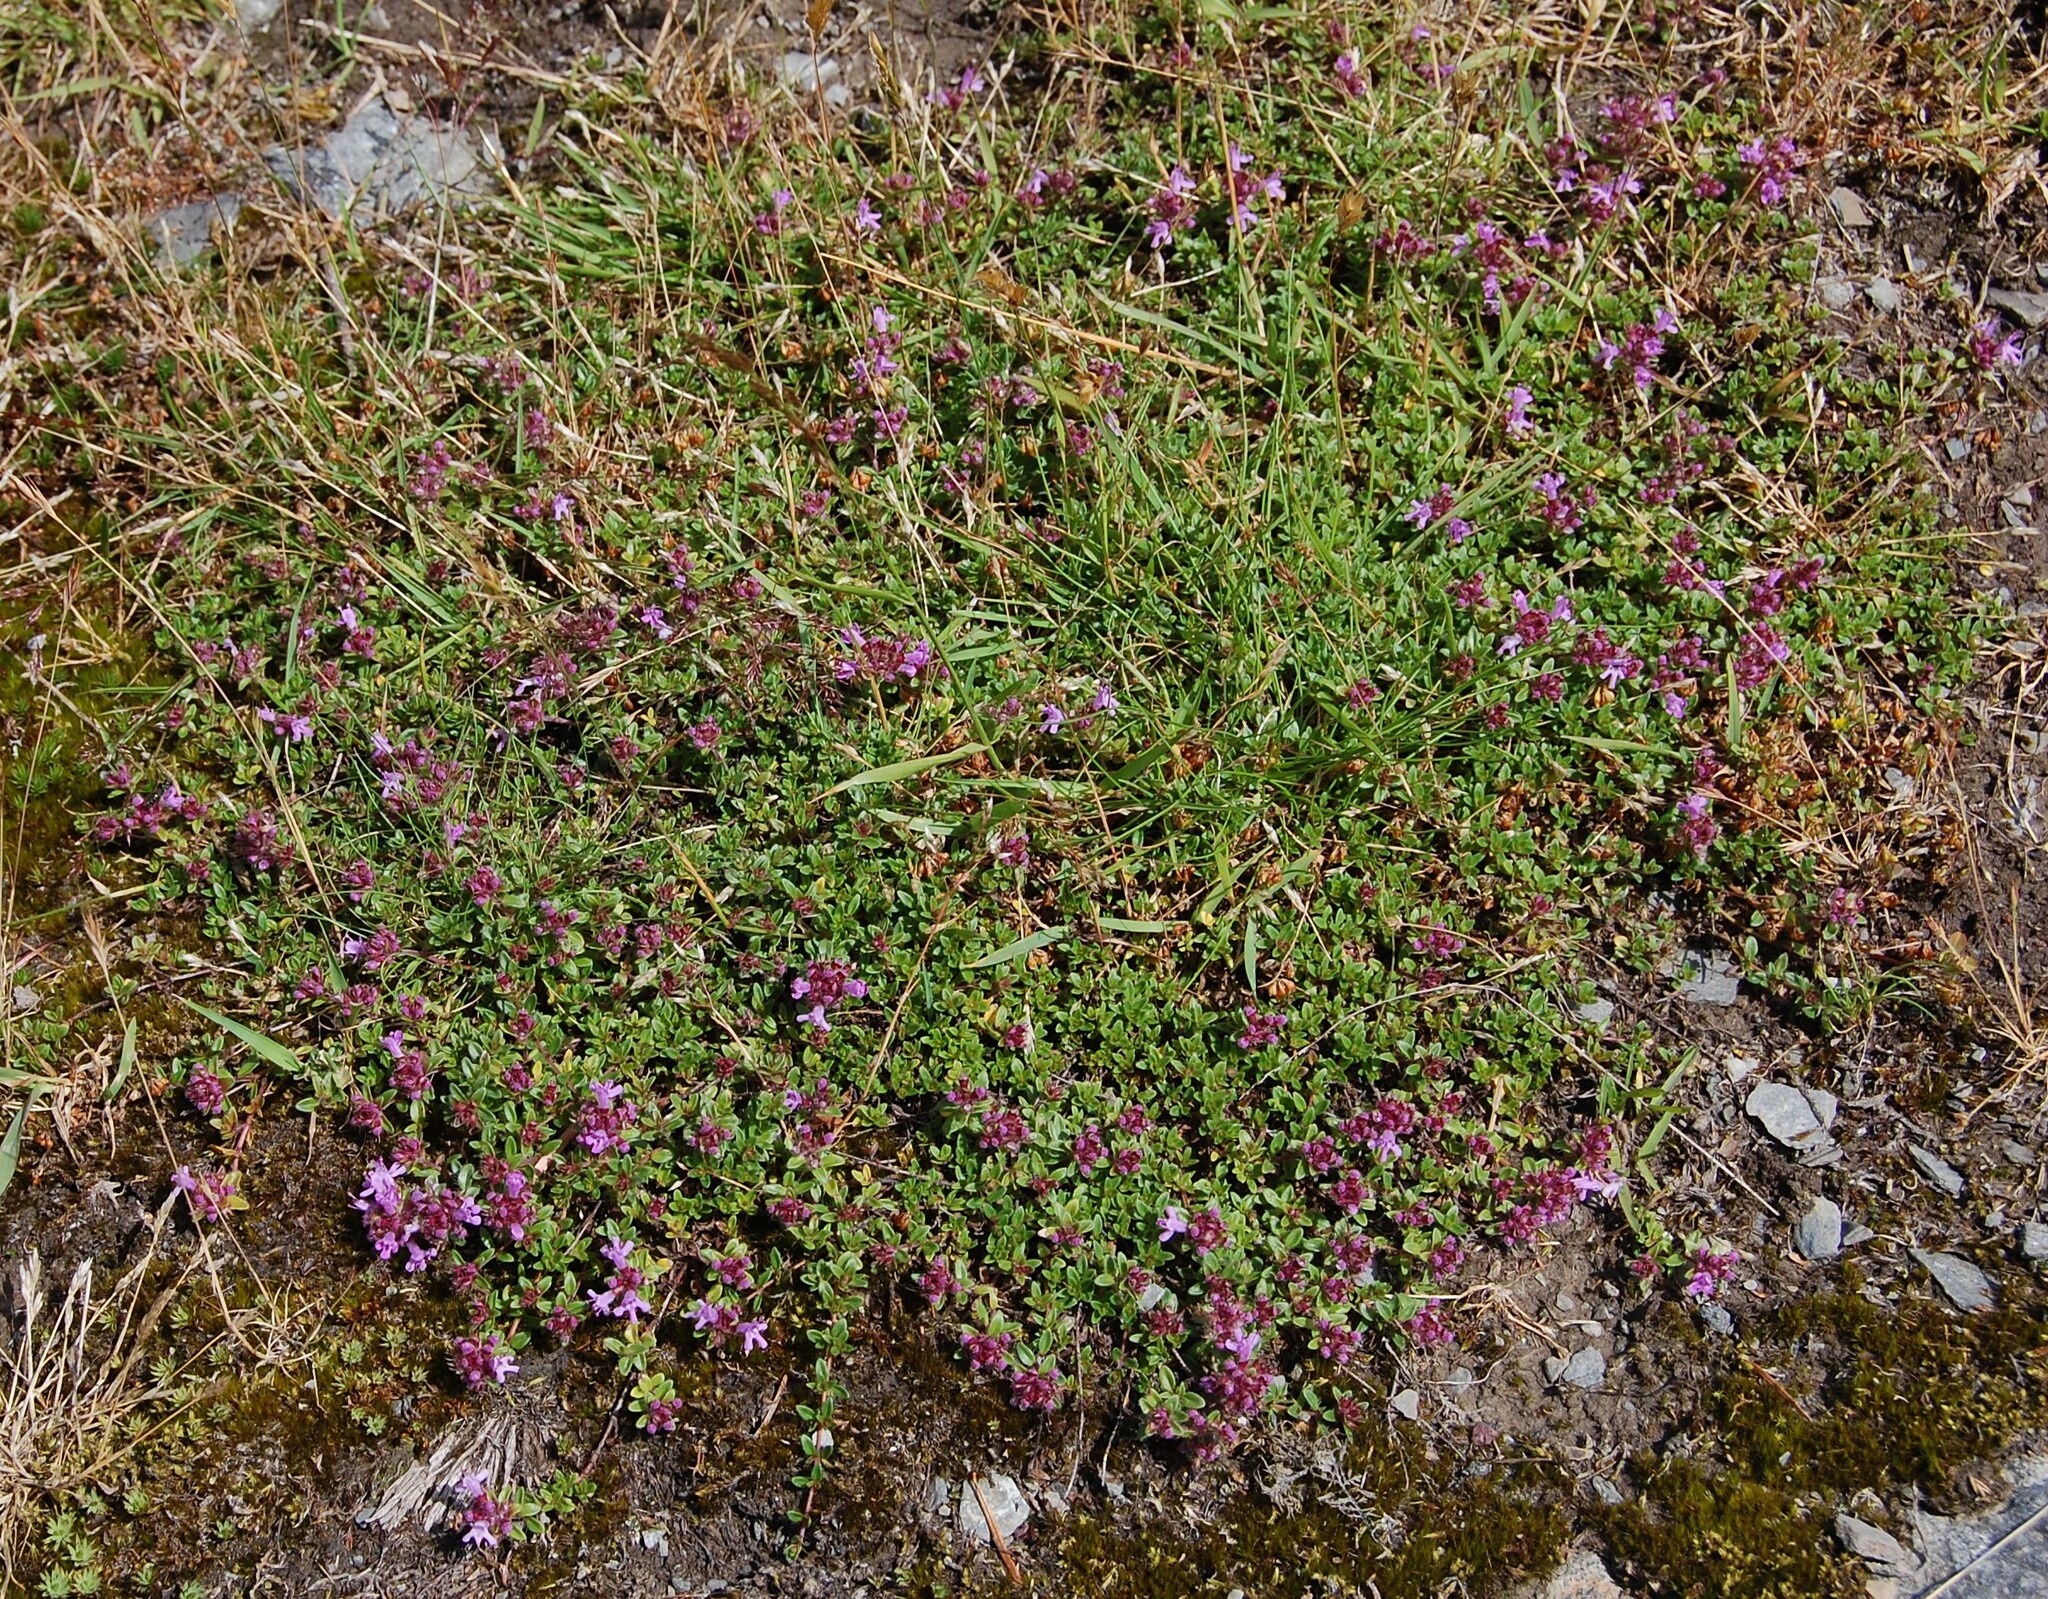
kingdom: Plantae
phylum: Tracheophyta
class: Magnoliopsida
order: Lamiales
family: Lamiaceae
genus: Thymus
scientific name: Thymus praecox
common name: Wild thyme
